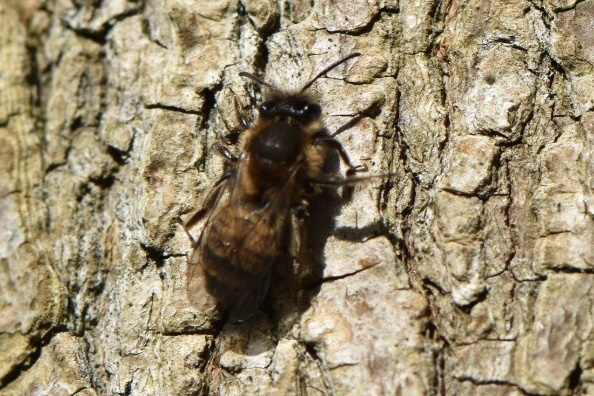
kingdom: Animalia
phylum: Arthropoda
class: Insecta
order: Hymenoptera
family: Andrenidae
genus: Andrena
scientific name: Andrena praecox
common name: Small sallow mining bee
